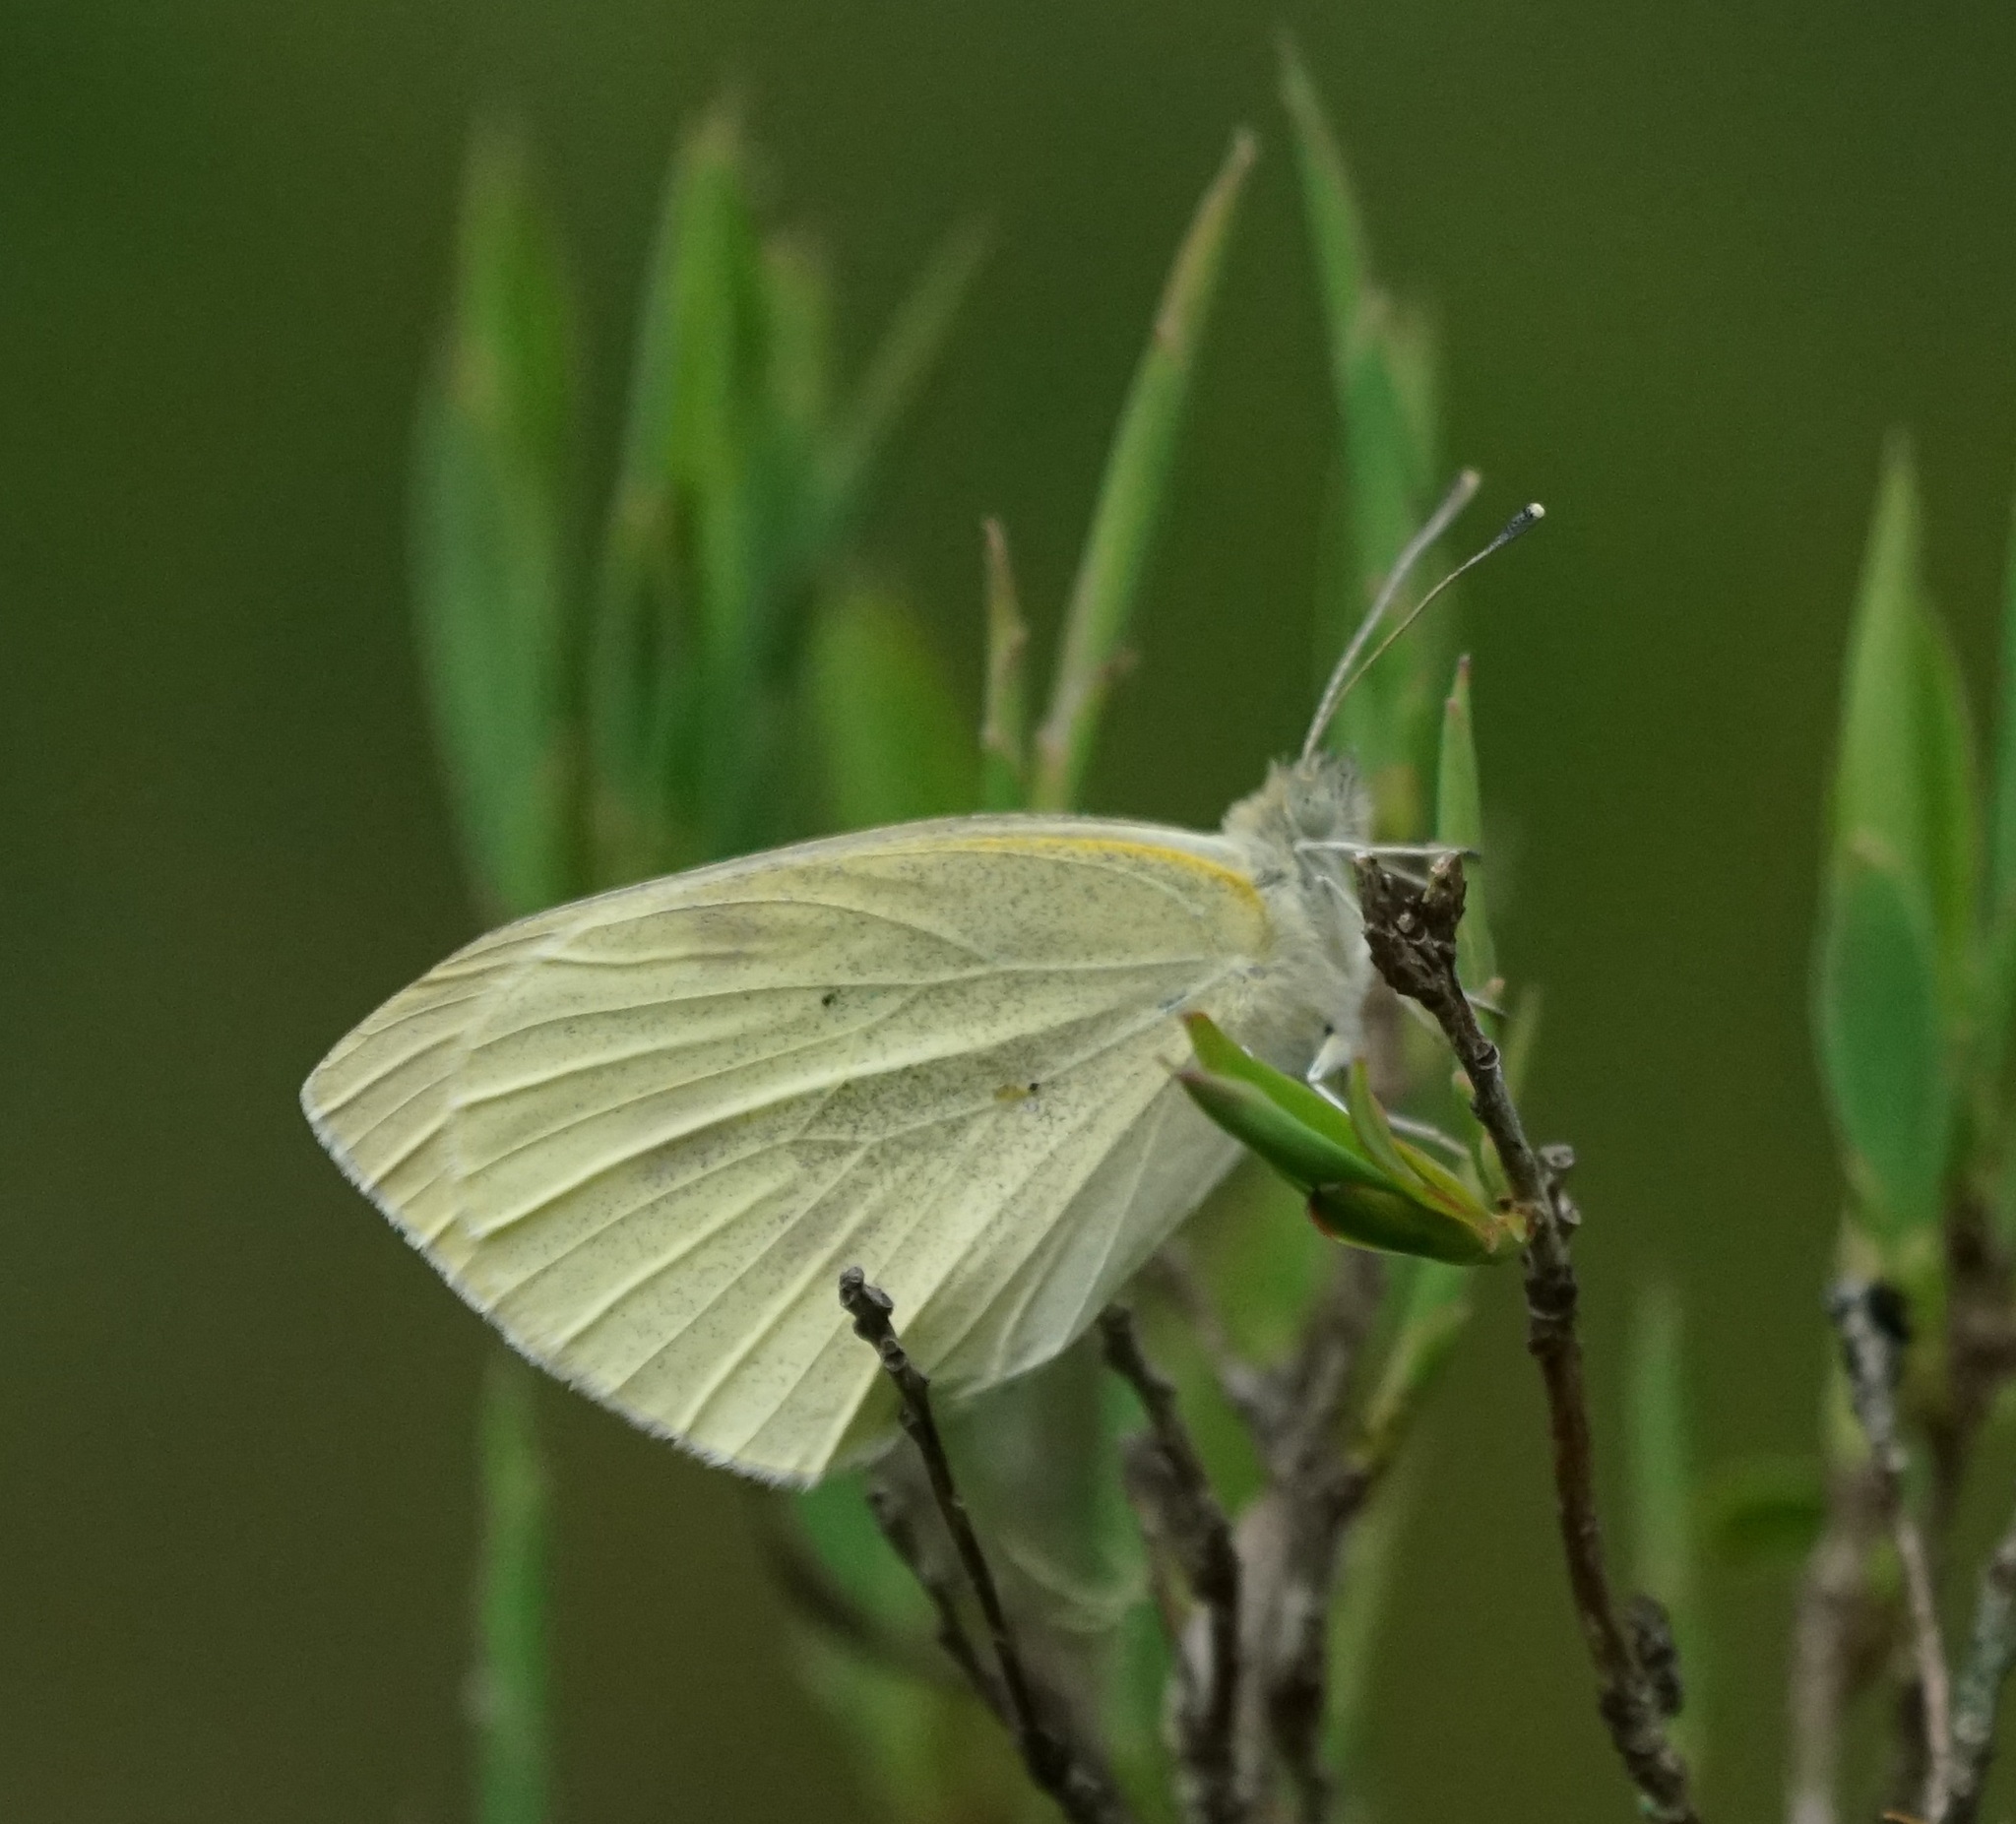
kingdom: Animalia
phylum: Arthropoda
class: Insecta
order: Lepidoptera
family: Pieridae
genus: Pieris
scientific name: Pieris rapae
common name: Small white
